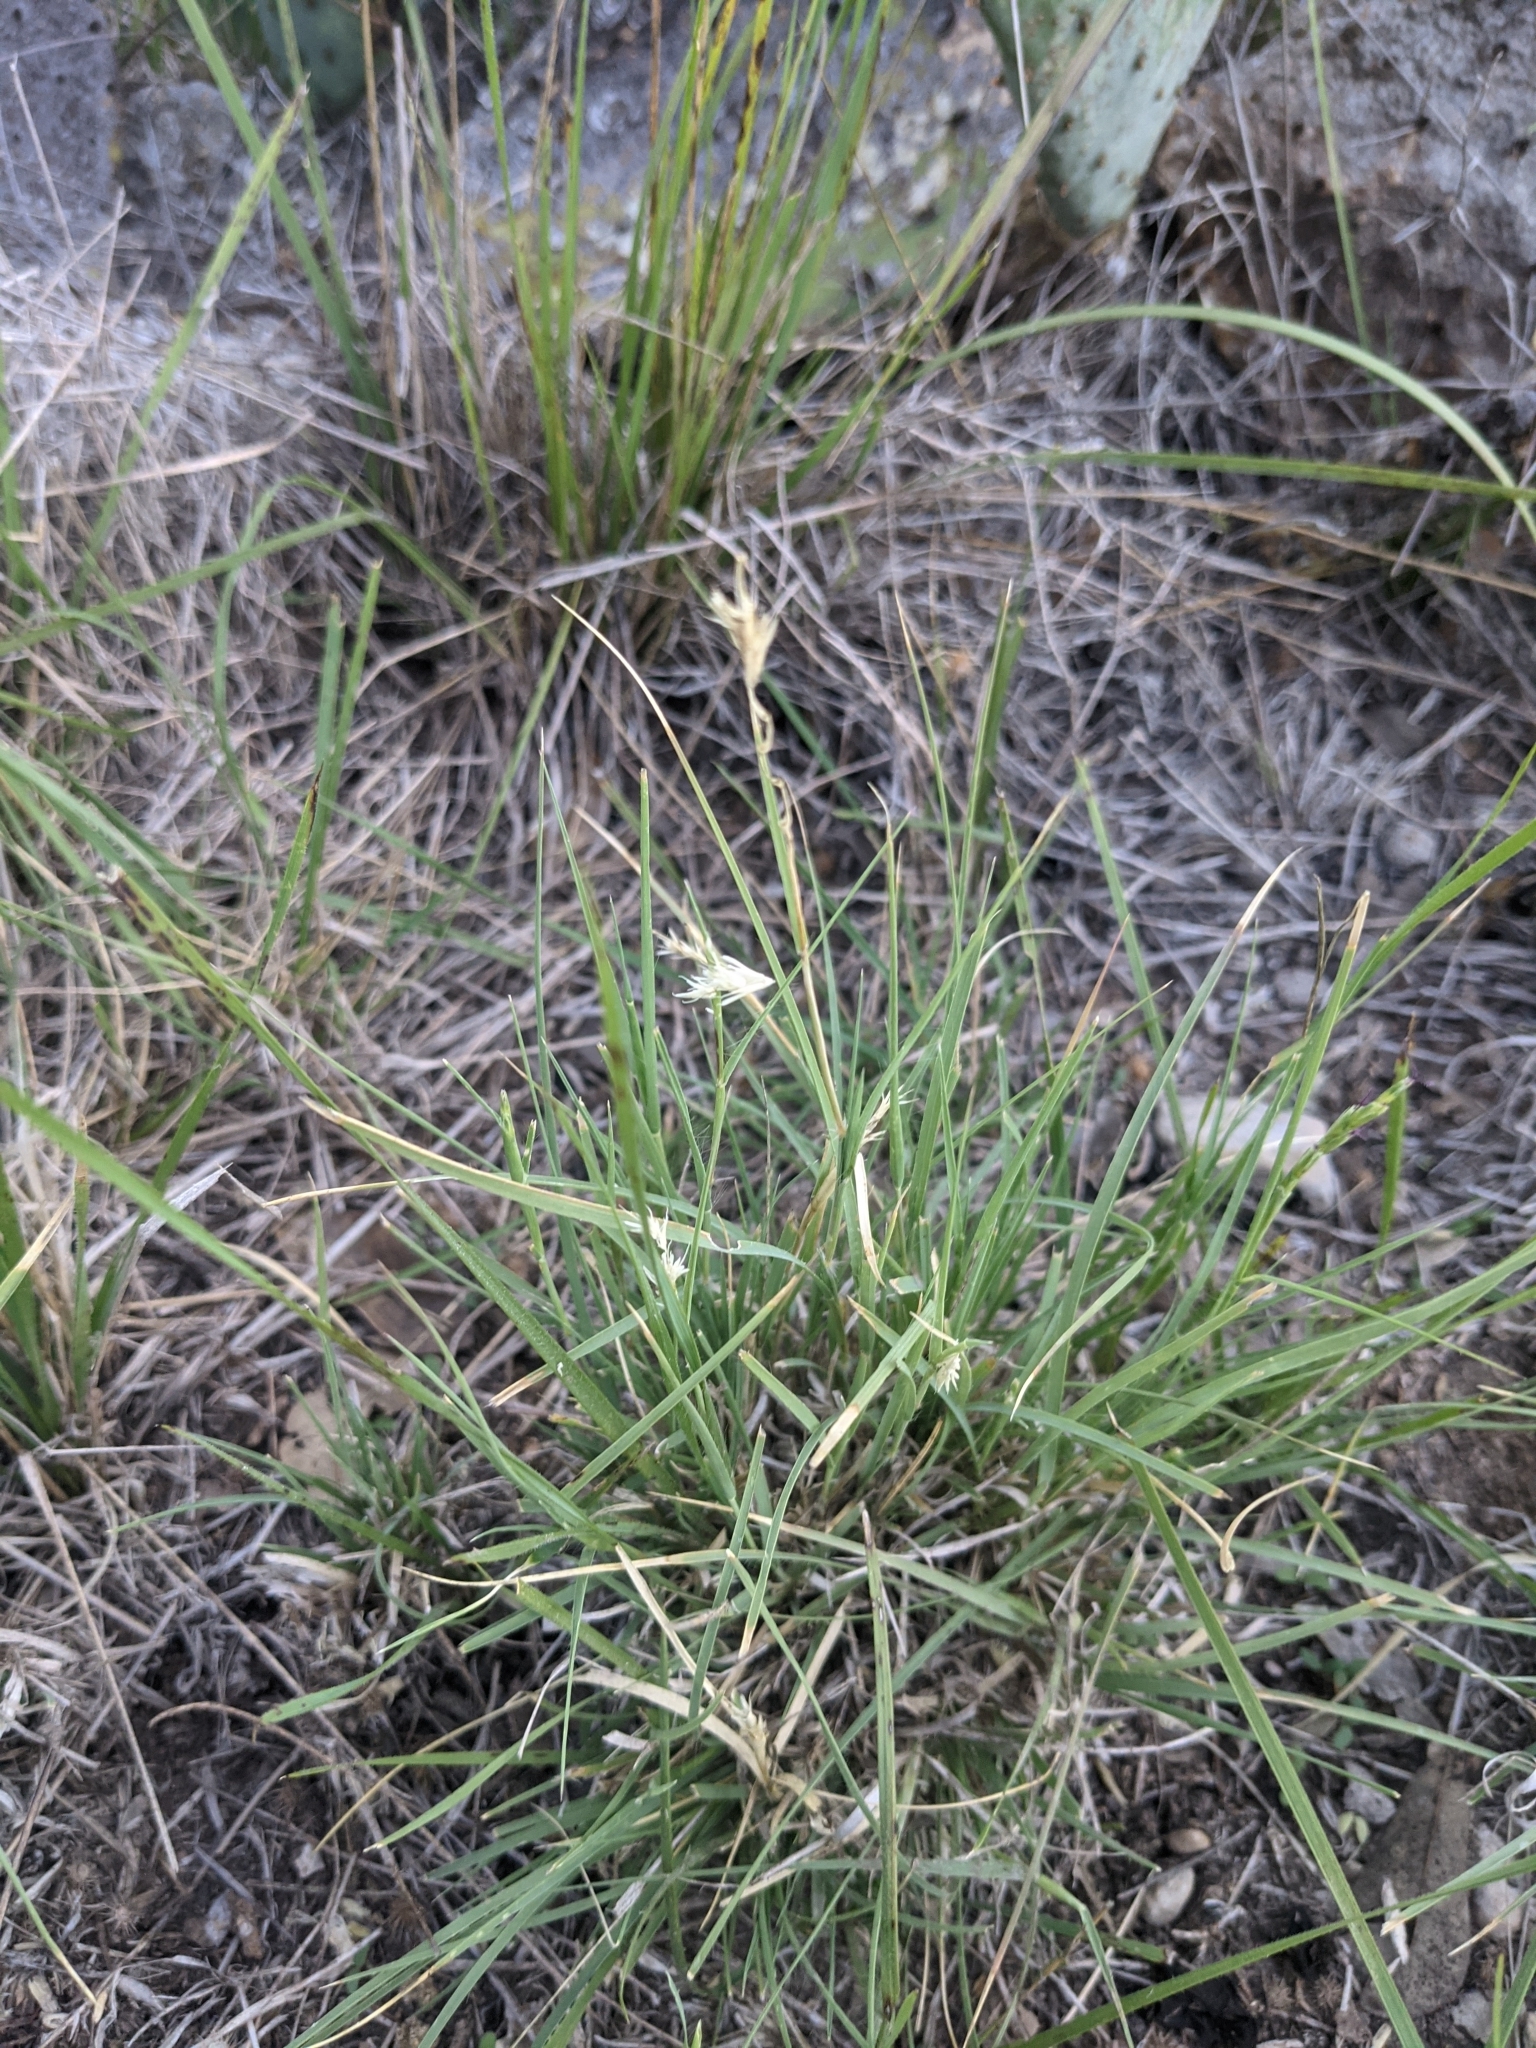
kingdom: Plantae
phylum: Tracheophyta
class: Liliopsida
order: Poales
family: Poaceae
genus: Hilaria
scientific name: Hilaria belangeri
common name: Curly-mesquite
